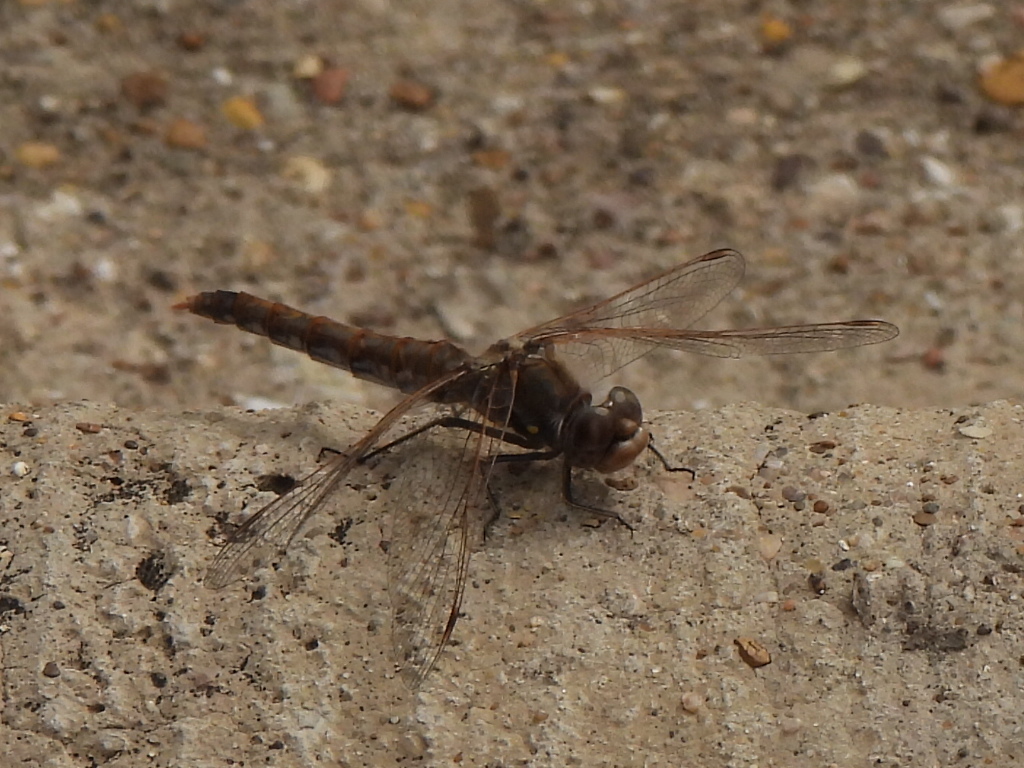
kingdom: Animalia
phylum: Arthropoda
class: Insecta
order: Odonata
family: Libellulidae
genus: Sympetrum
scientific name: Sympetrum corruptum
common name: Variegated meadowhawk
